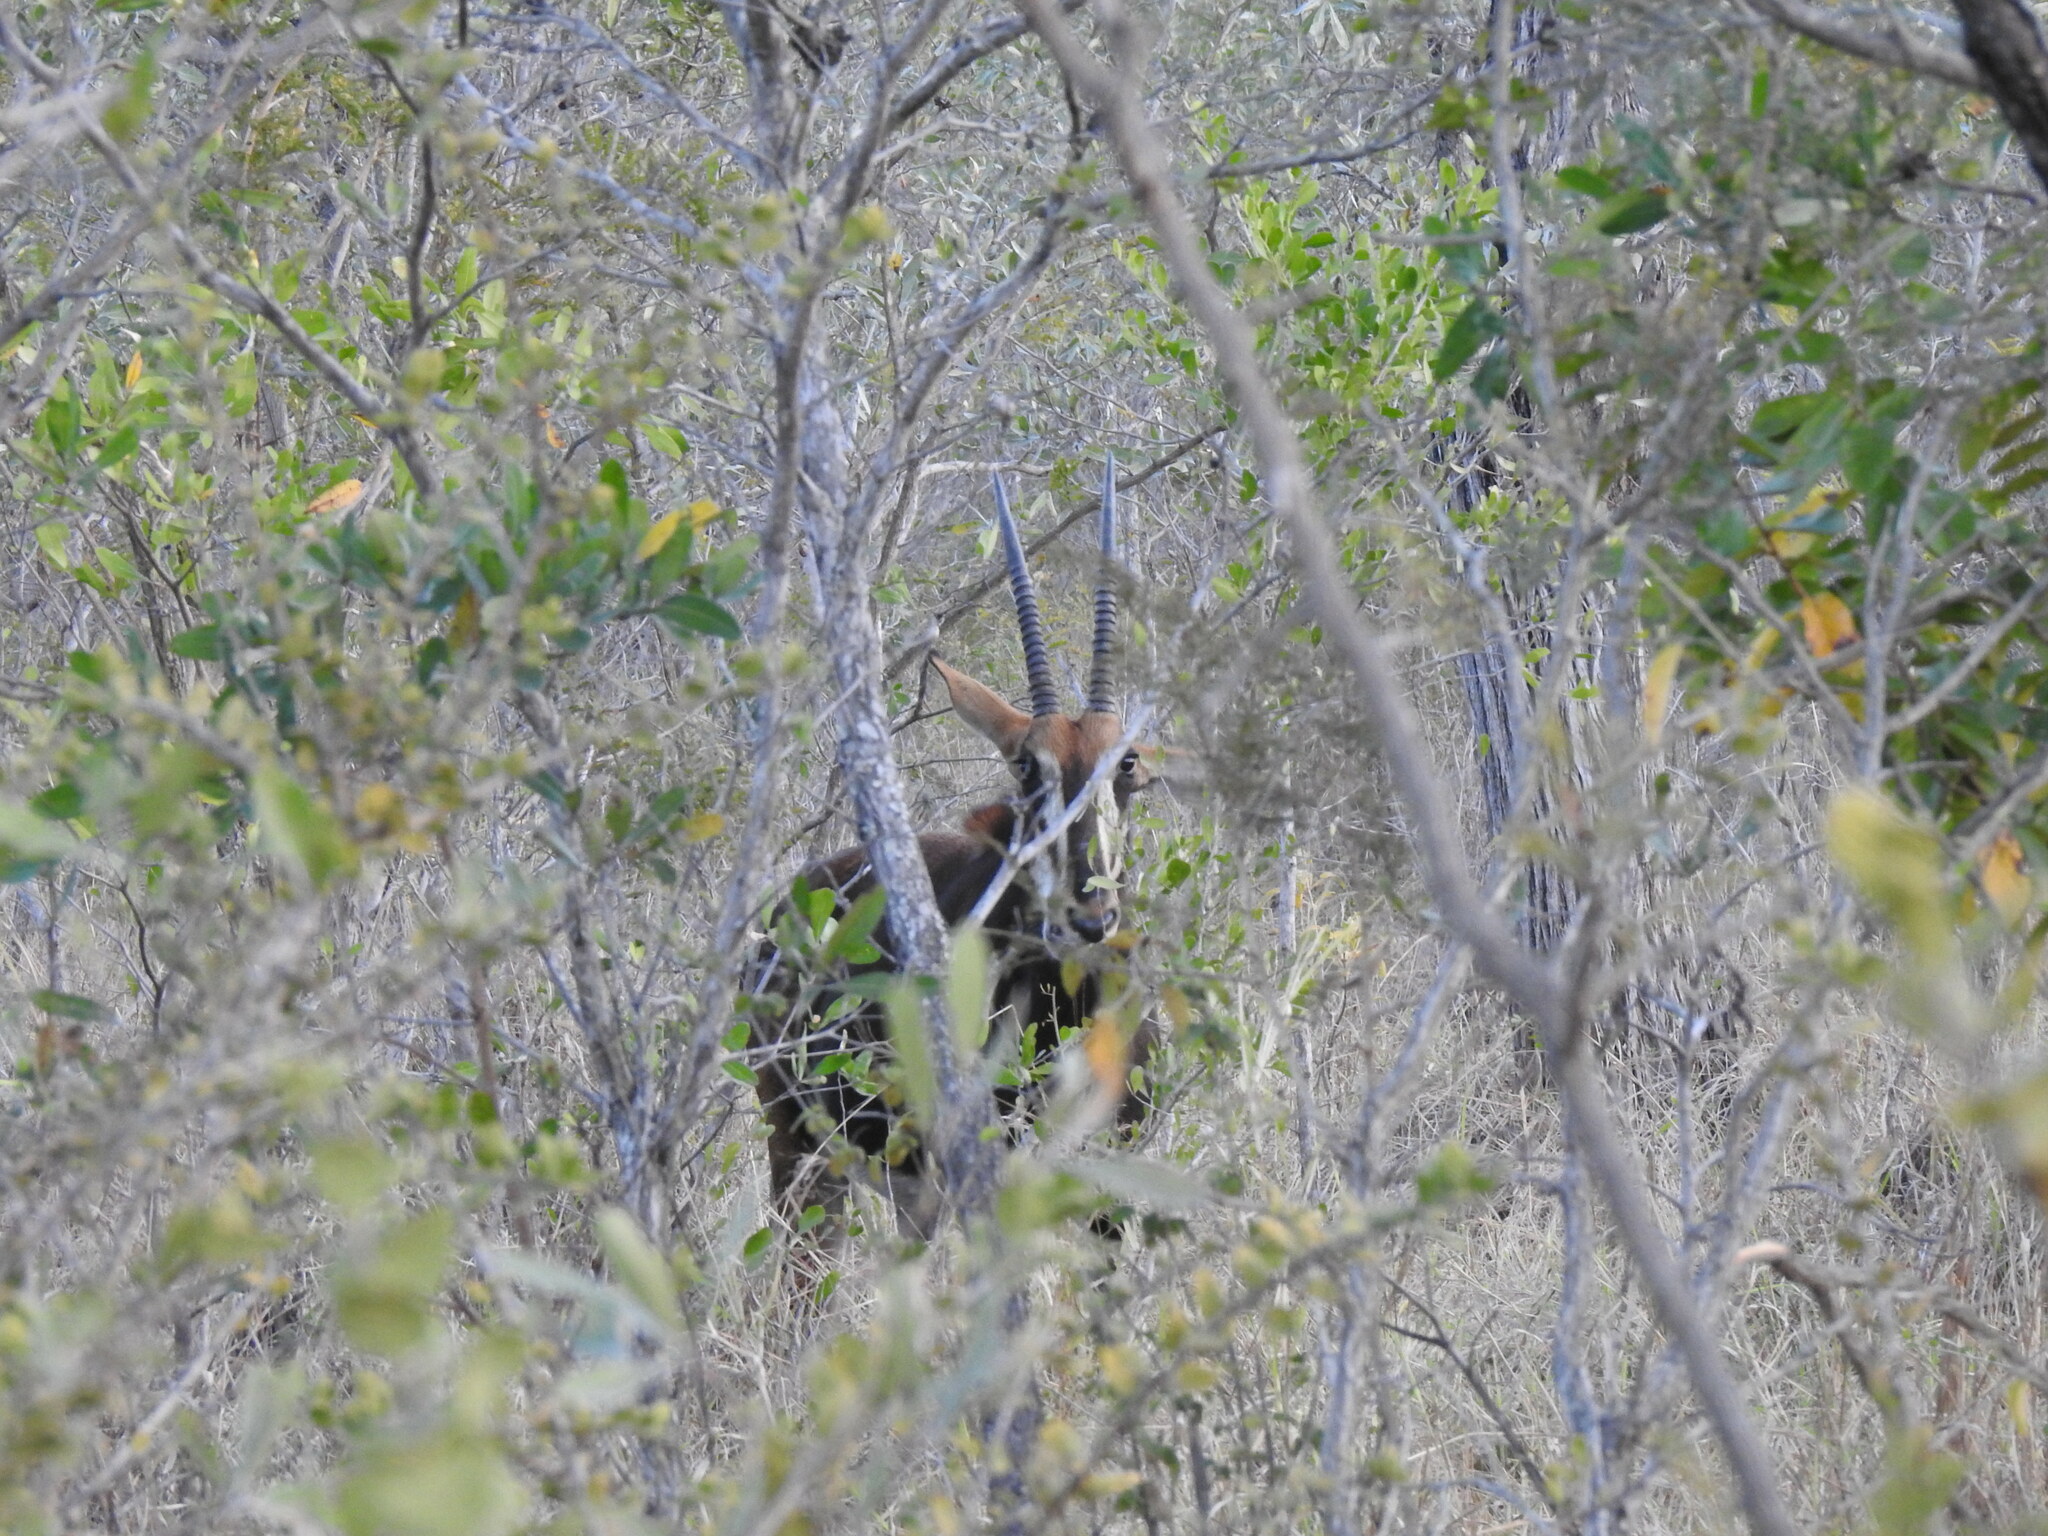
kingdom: Animalia
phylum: Chordata
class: Mammalia
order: Artiodactyla
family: Bovidae
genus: Hippotragus
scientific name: Hippotragus niger
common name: Sable antelope
